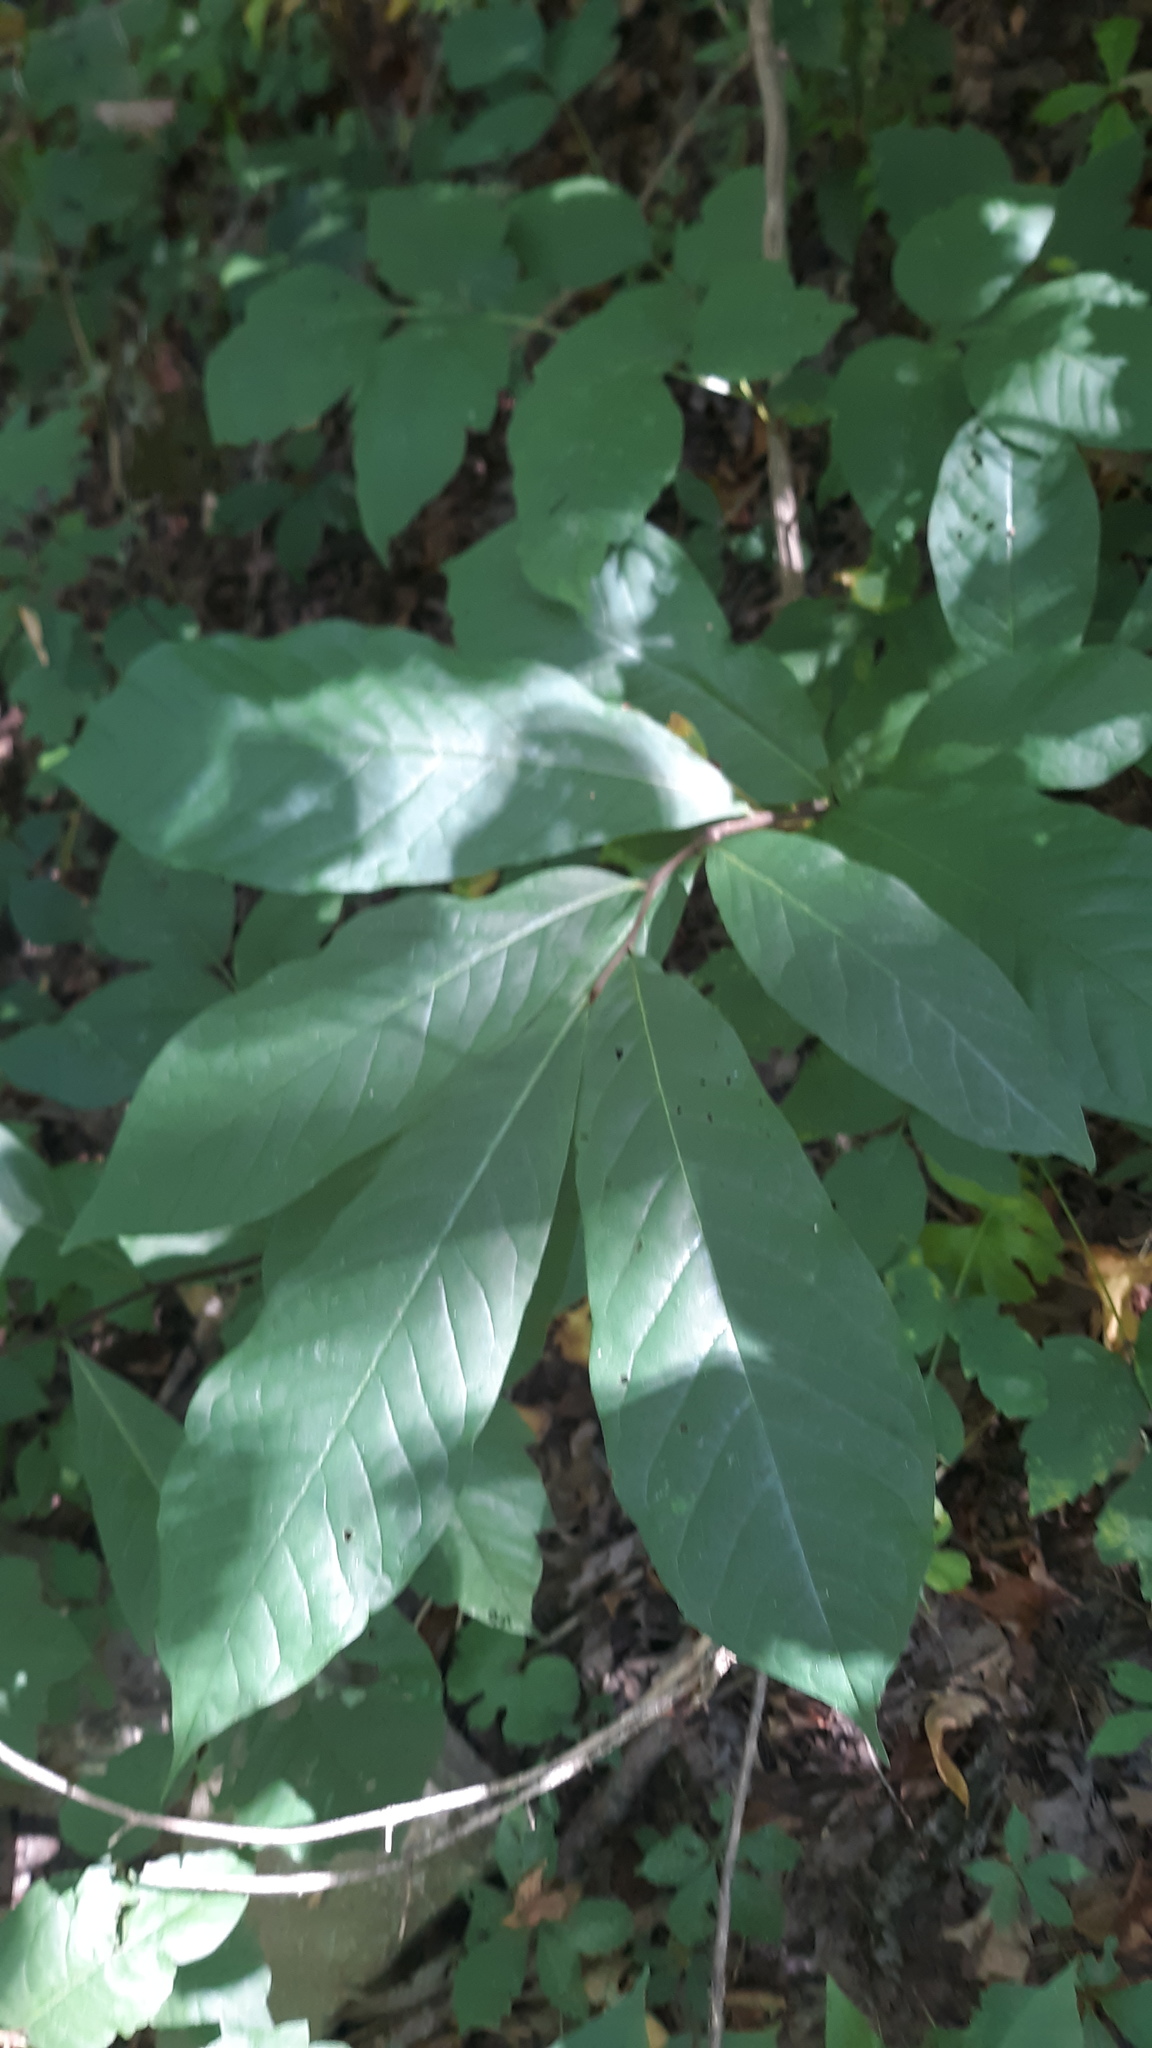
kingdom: Plantae
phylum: Tracheophyta
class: Magnoliopsida
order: Magnoliales
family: Annonaceae
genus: Asimina
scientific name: Asimina triloba
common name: Dog-banana
